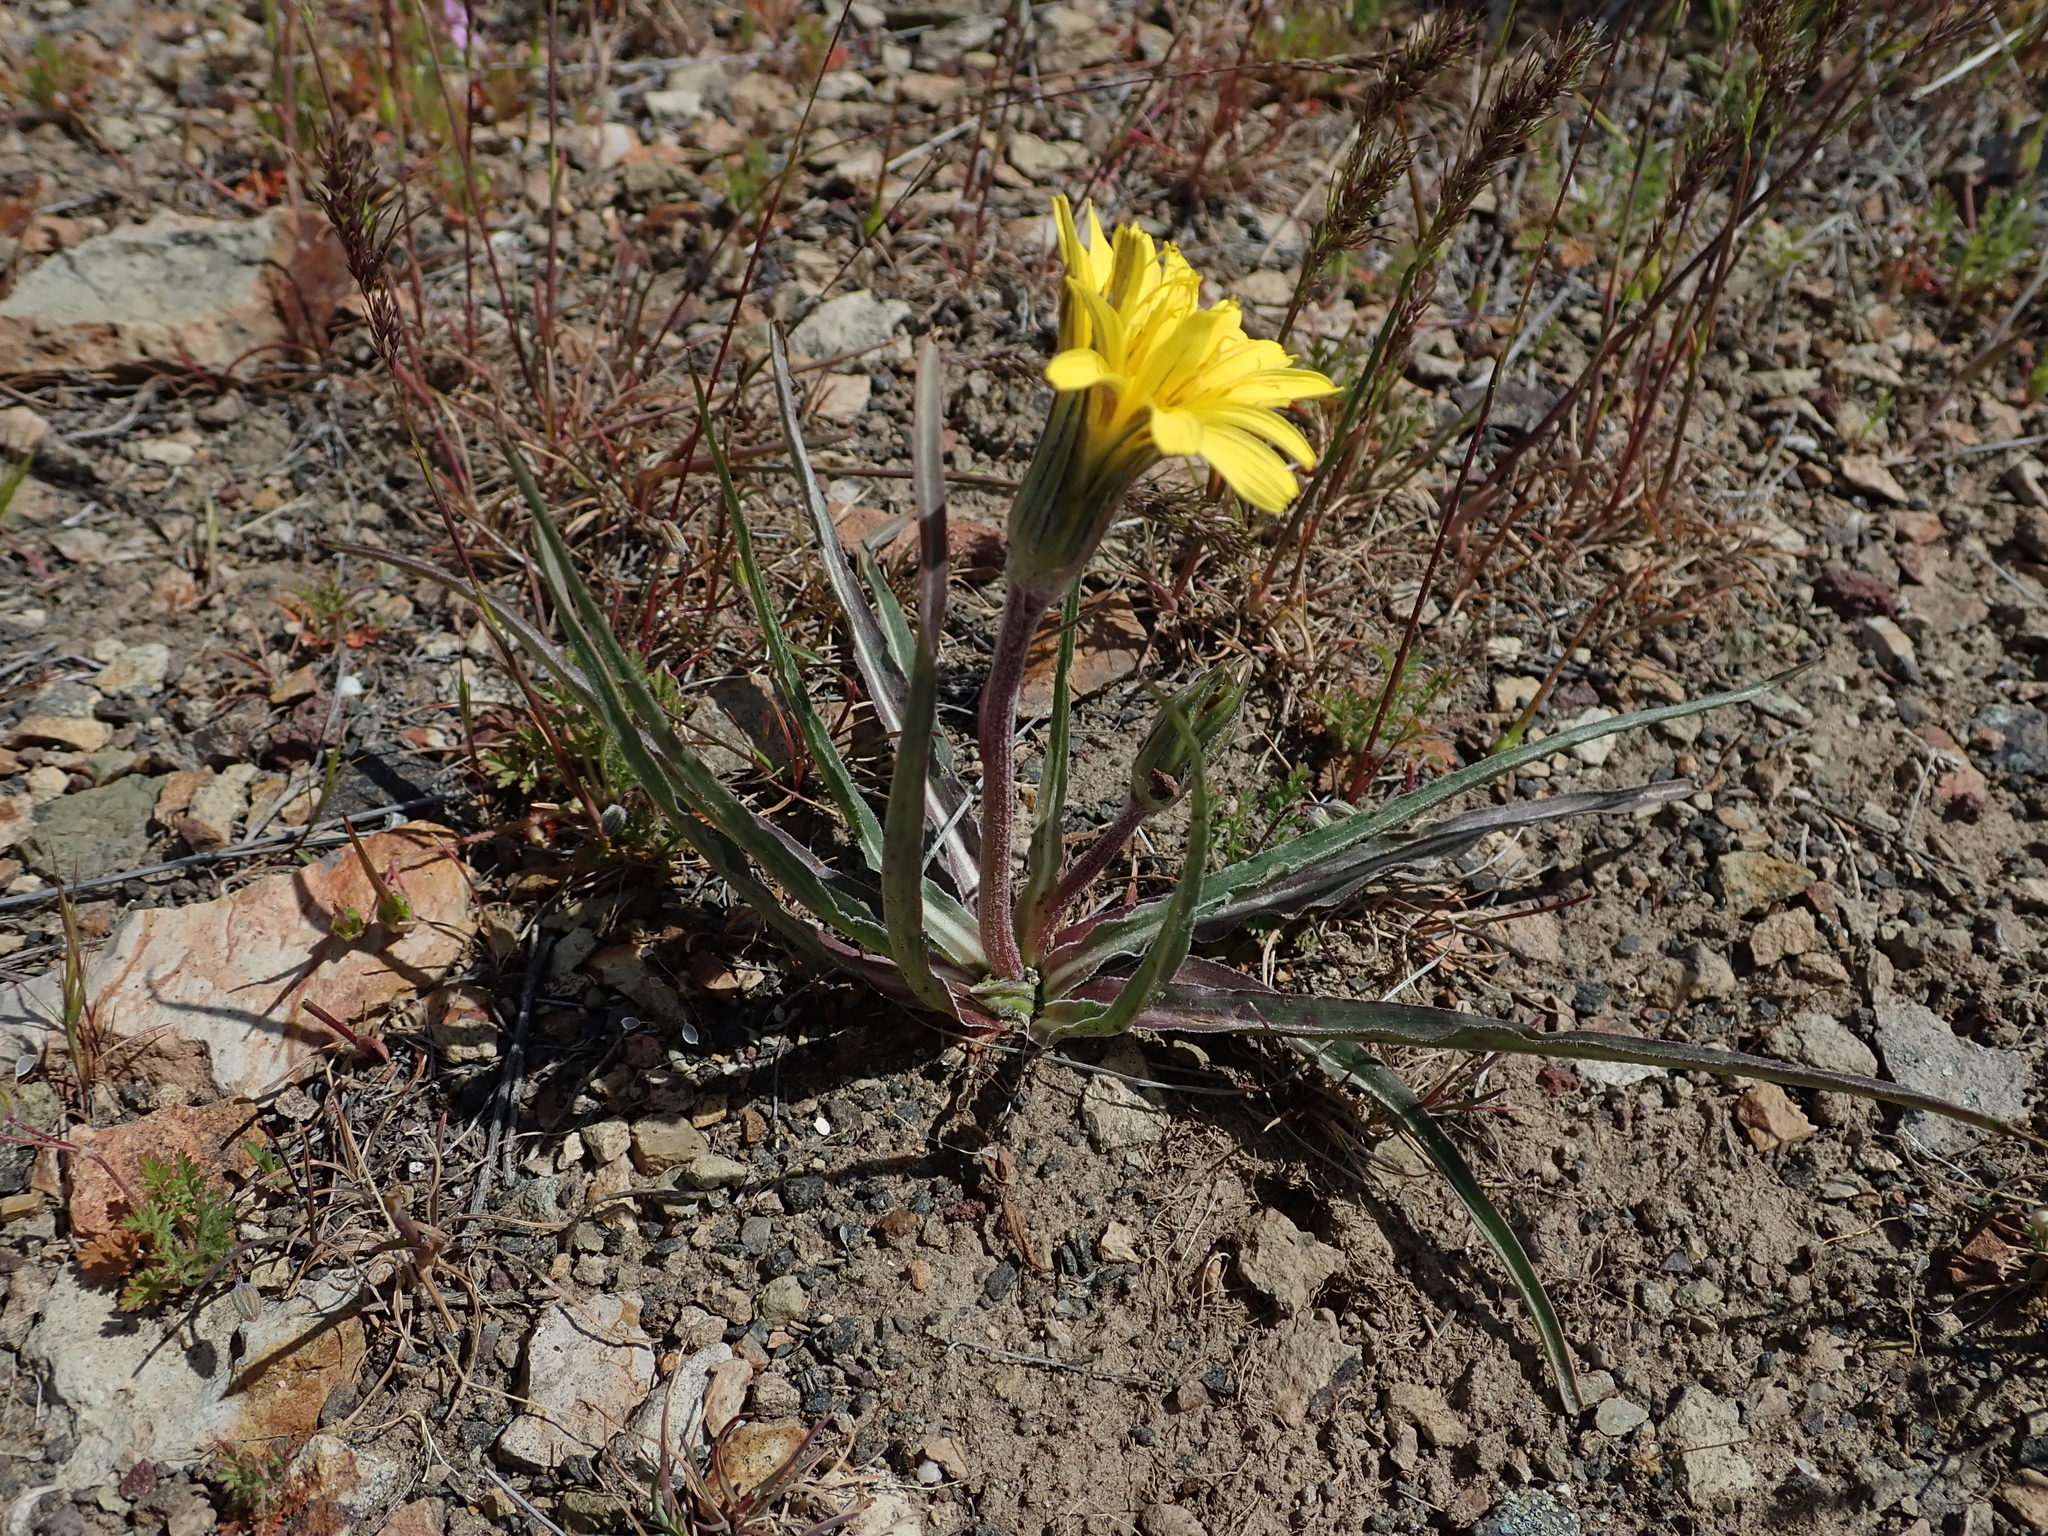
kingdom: Plantae
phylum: Tracheophyta
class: Magnoliopsida
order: Asterales
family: Asteraceae
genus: Microseris
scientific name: Microseris troximoides
